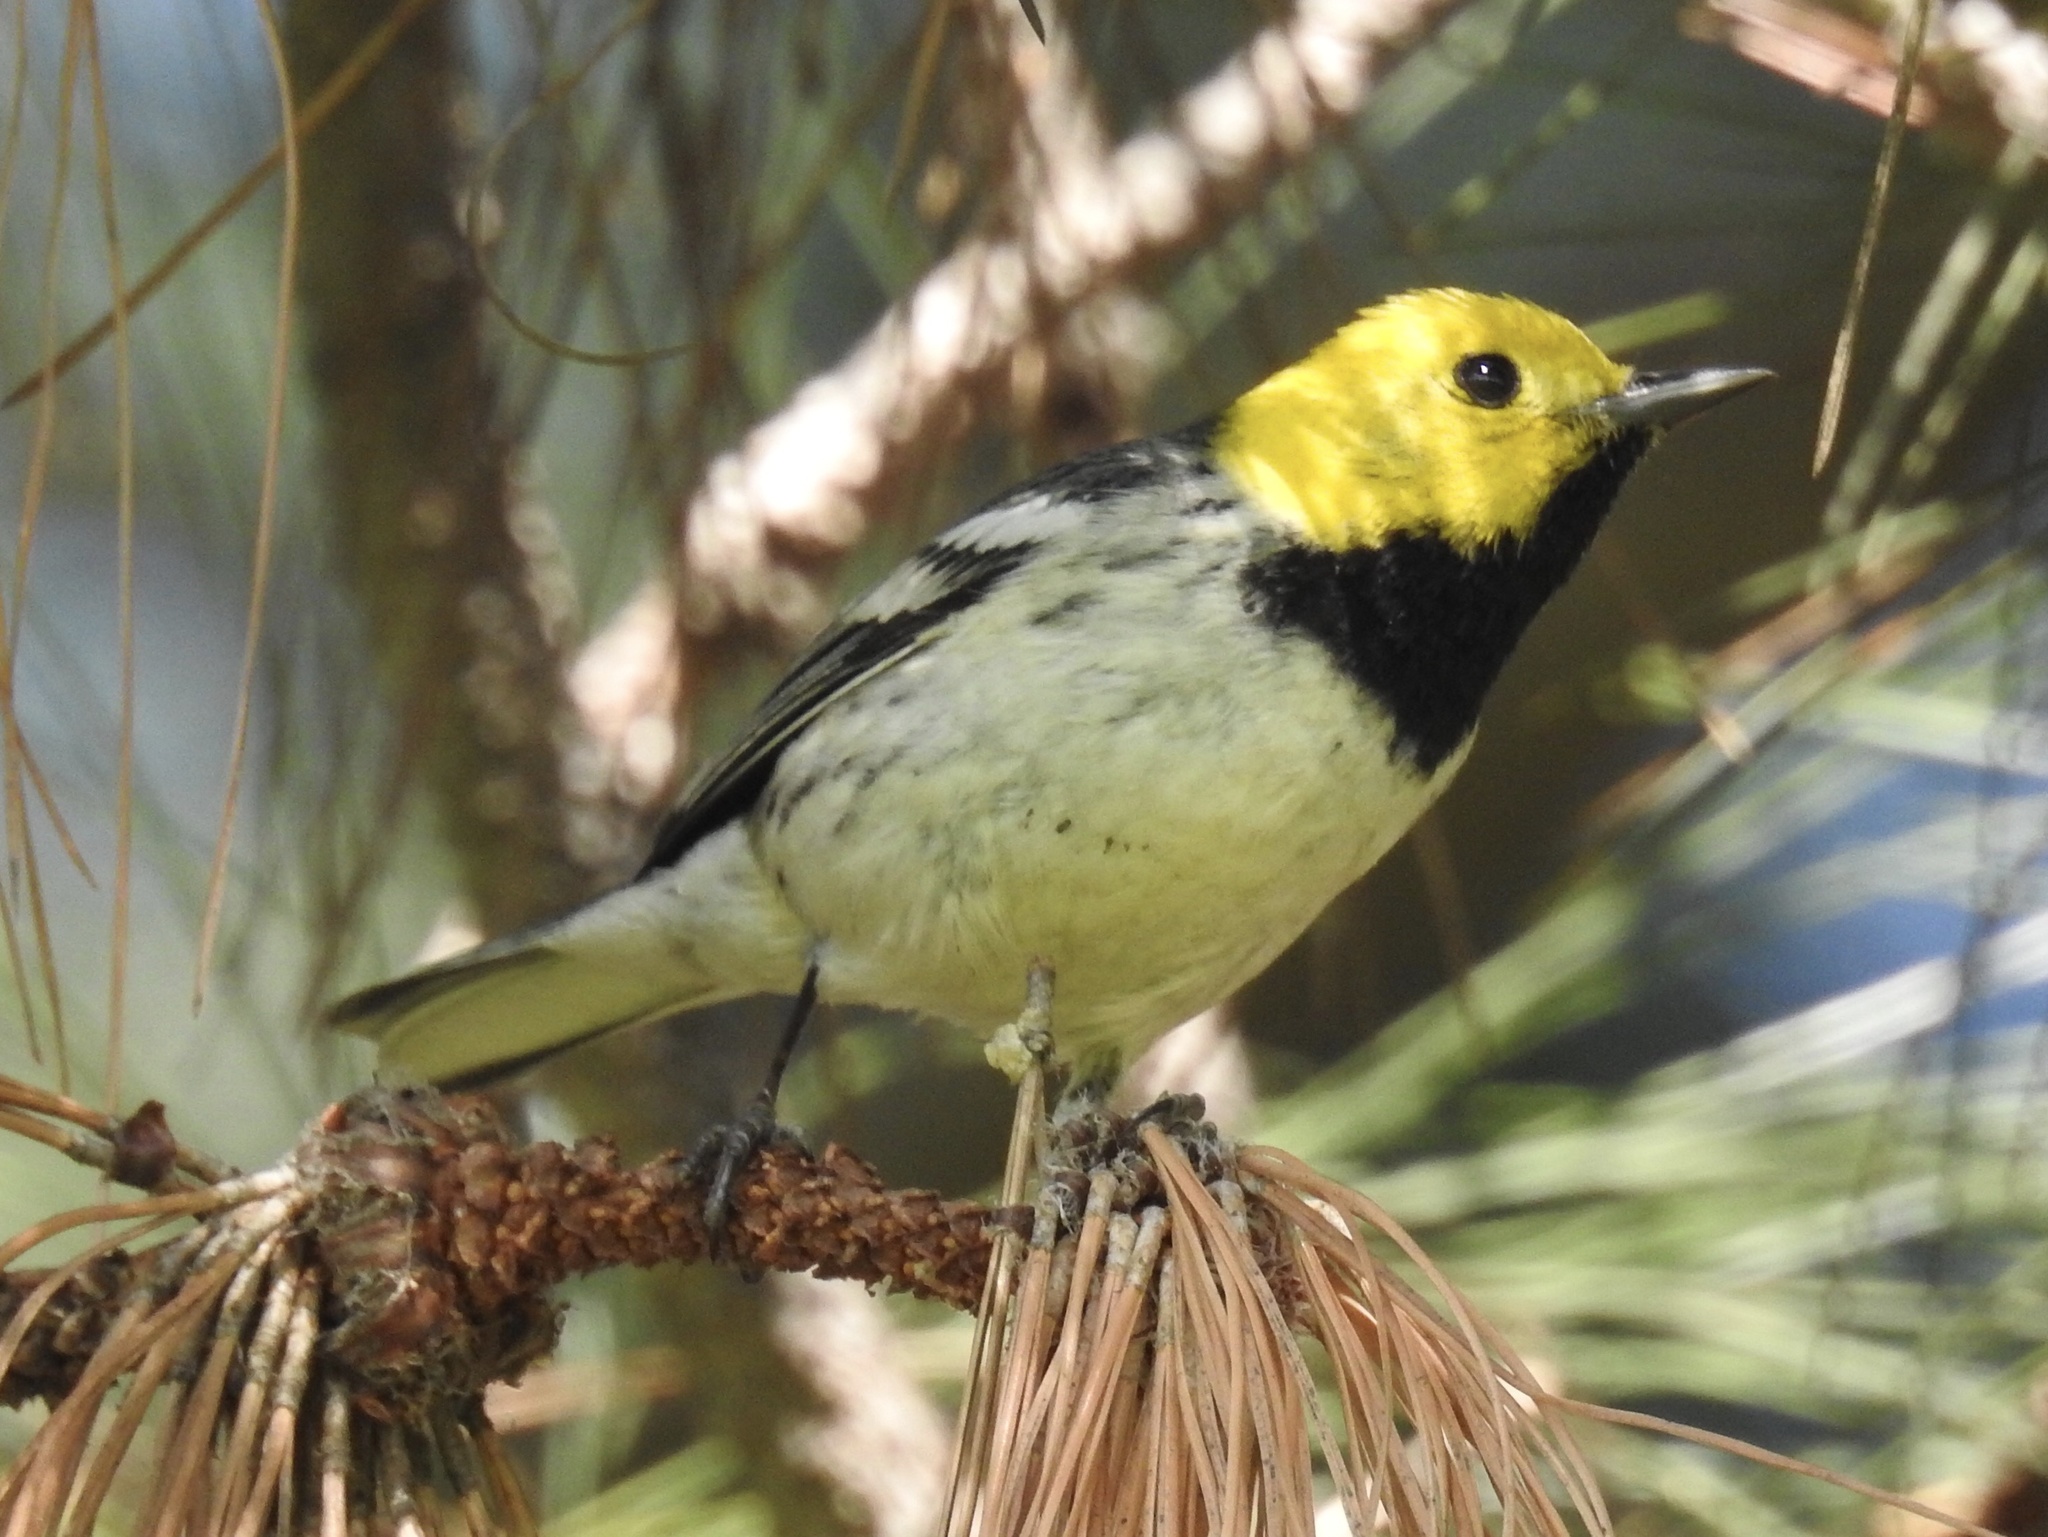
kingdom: Animalia
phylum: Chordata
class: Aves
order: Passeriformes
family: Parulidae
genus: Setophaga
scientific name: Setophaga occidentalis
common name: Hermit warbler
